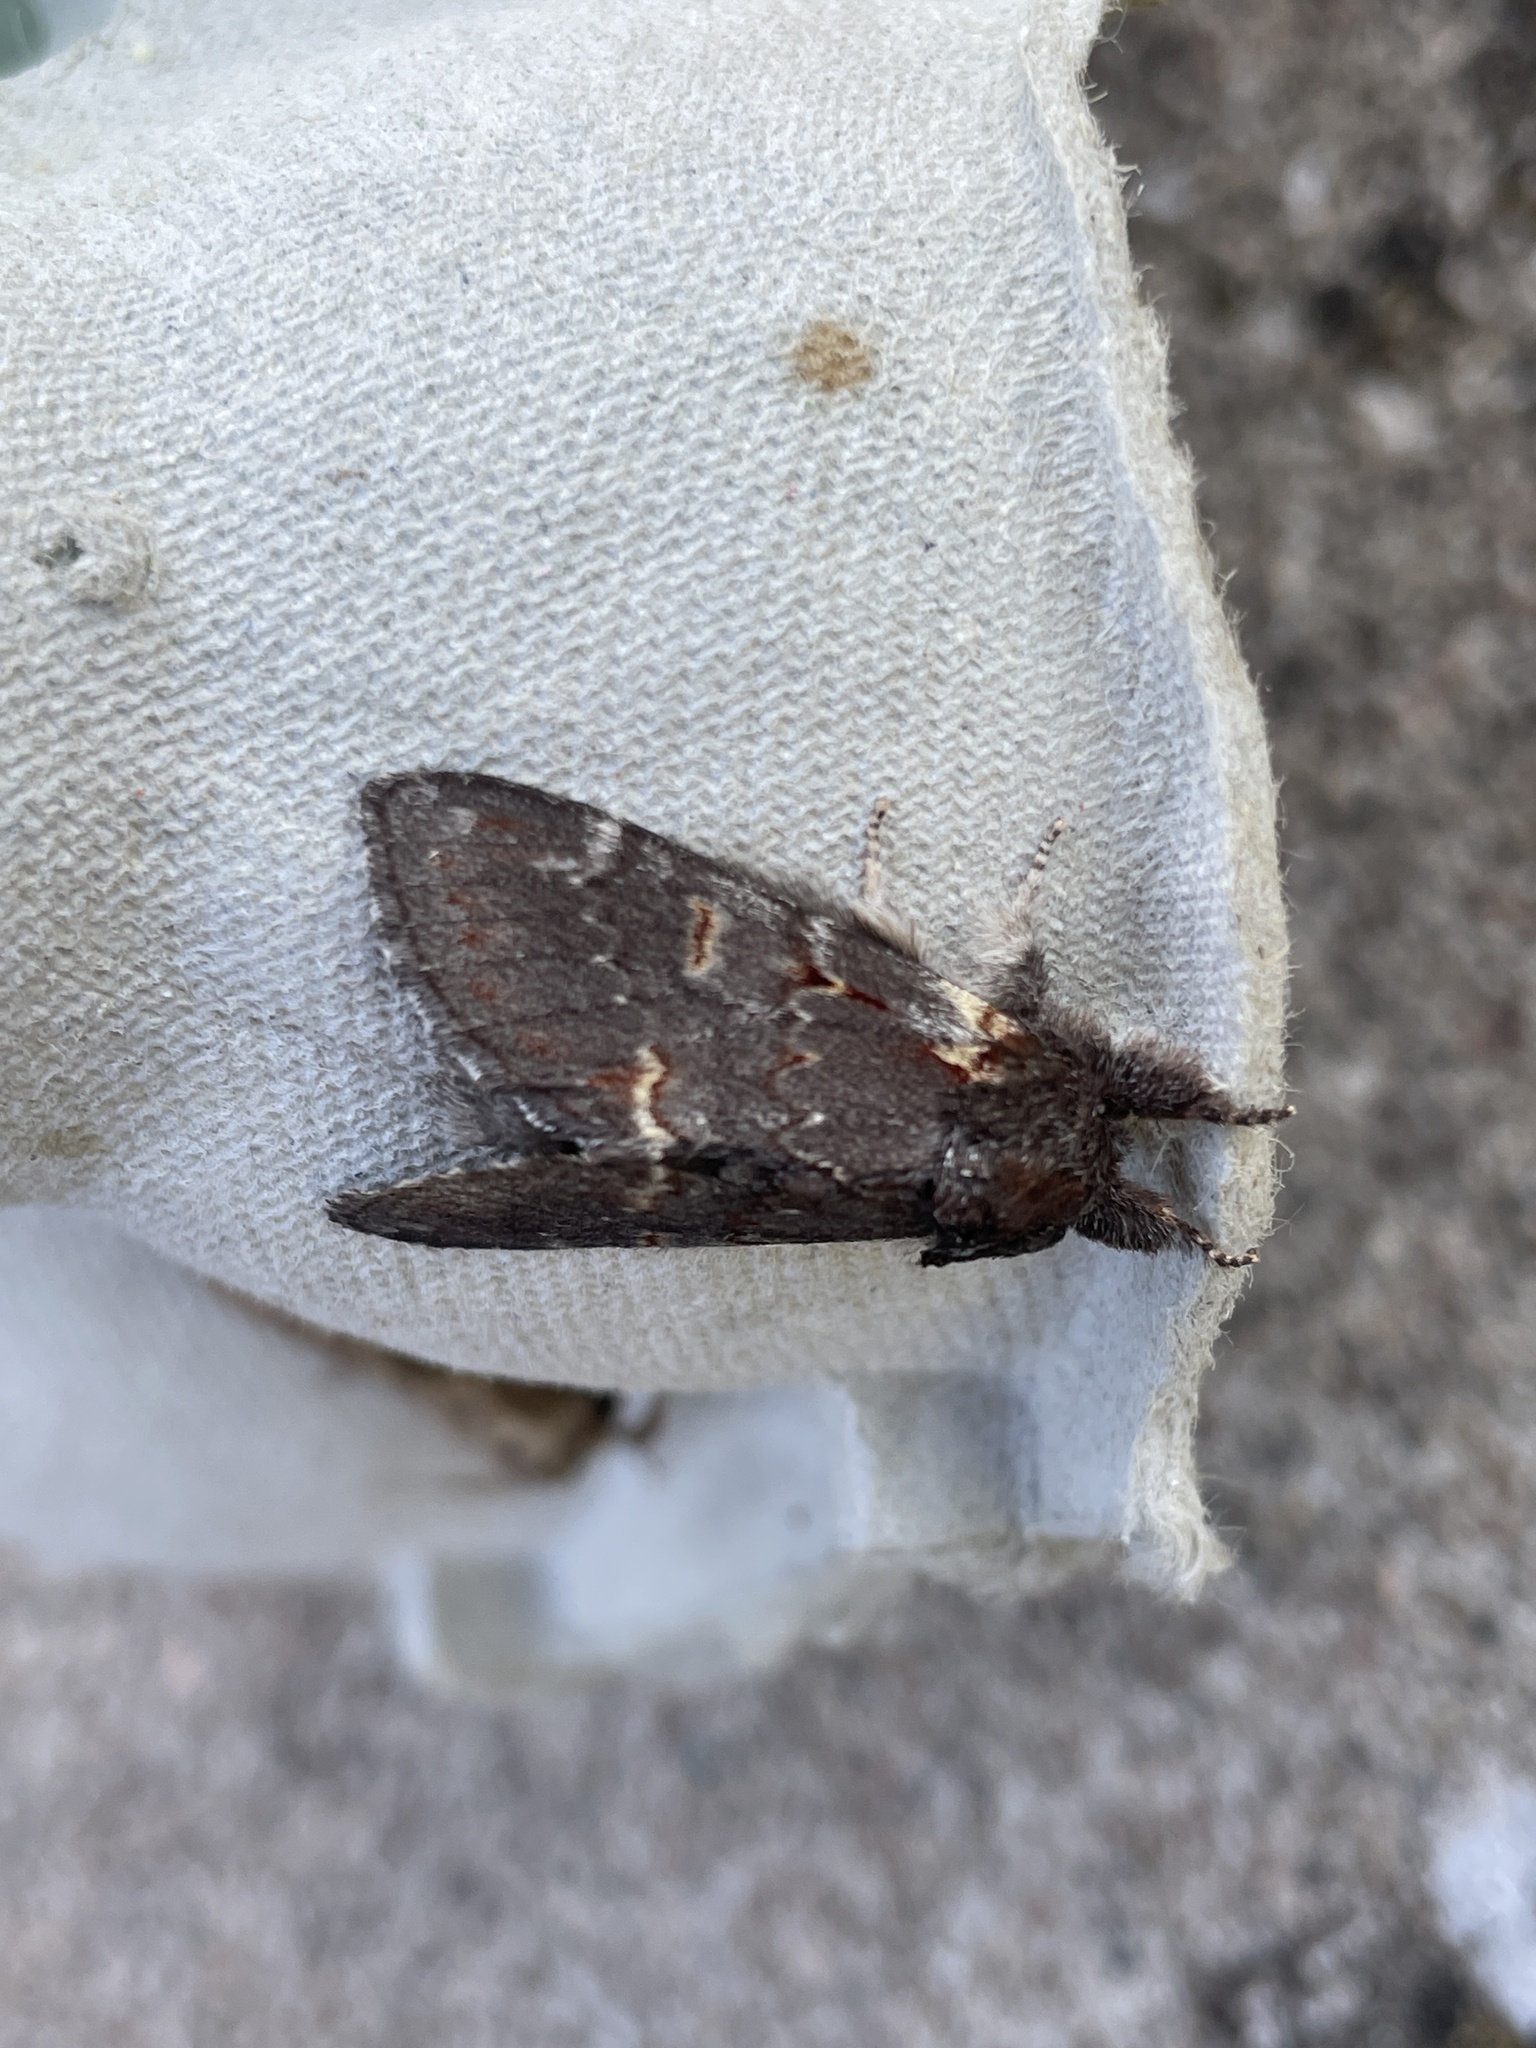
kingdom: Animalia
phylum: Arthropoda
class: Insecta
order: Lepidoptera
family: Notodontidae
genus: Notodonta
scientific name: Notodonta dromedarius
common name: Iron prominent
